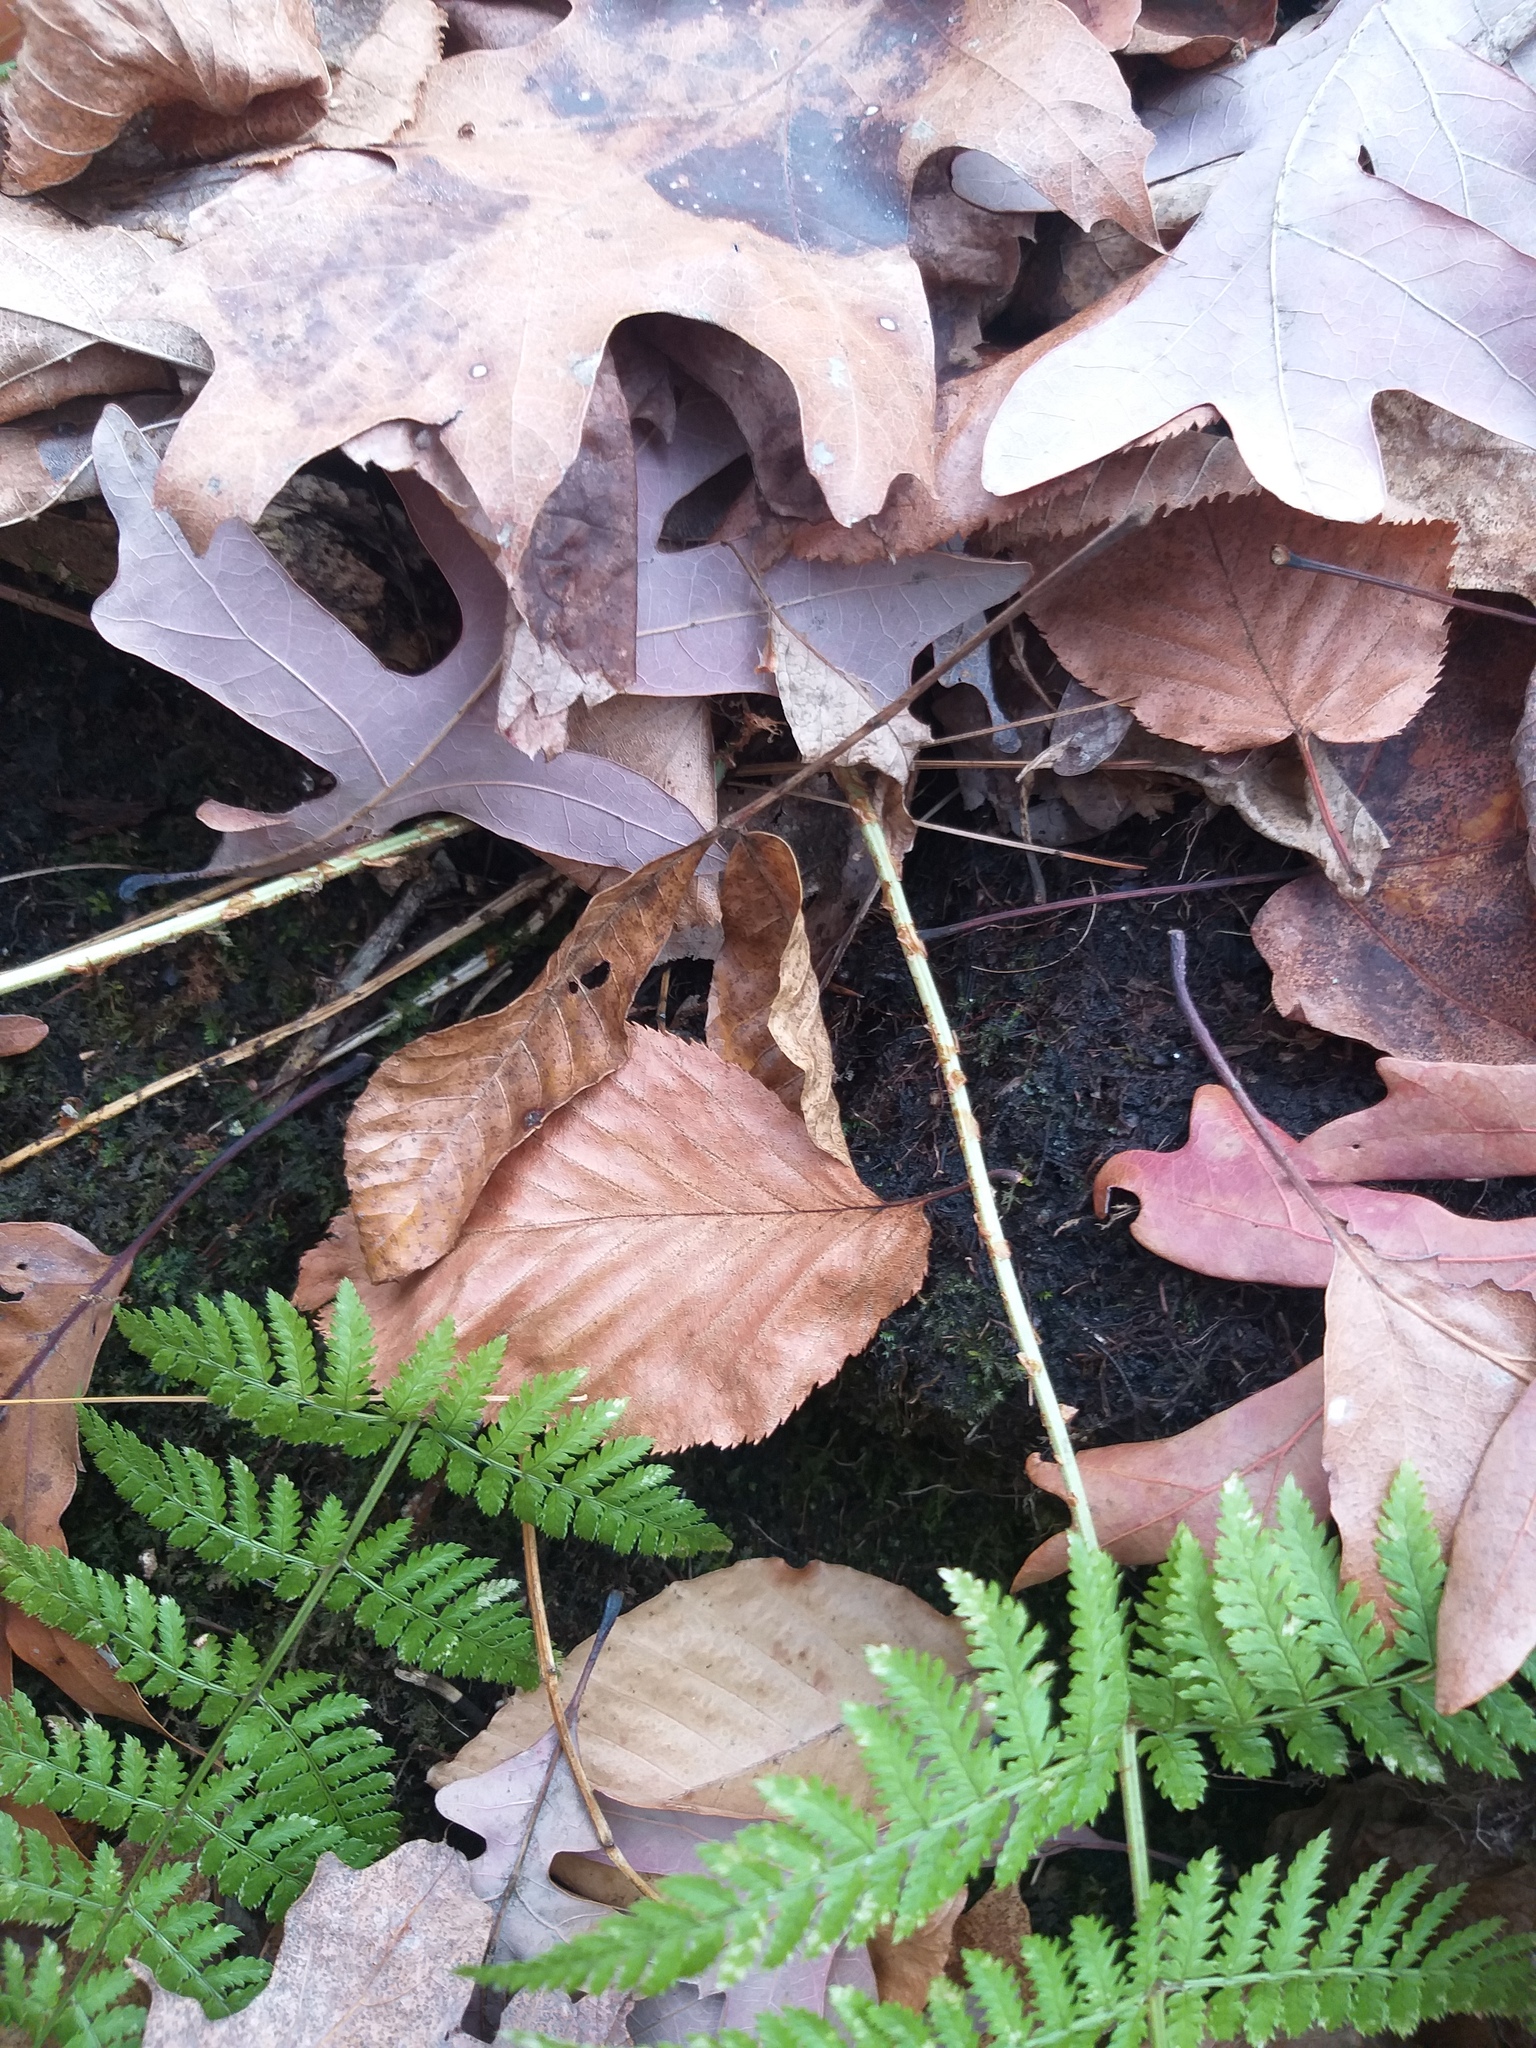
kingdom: Plantae
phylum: Tracheophyta
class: Polypodiopsida
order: Polypodiales
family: Dryopteridaceae
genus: Dryopteris
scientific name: Dryopteris intermedia
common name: Evergreen wood fern
